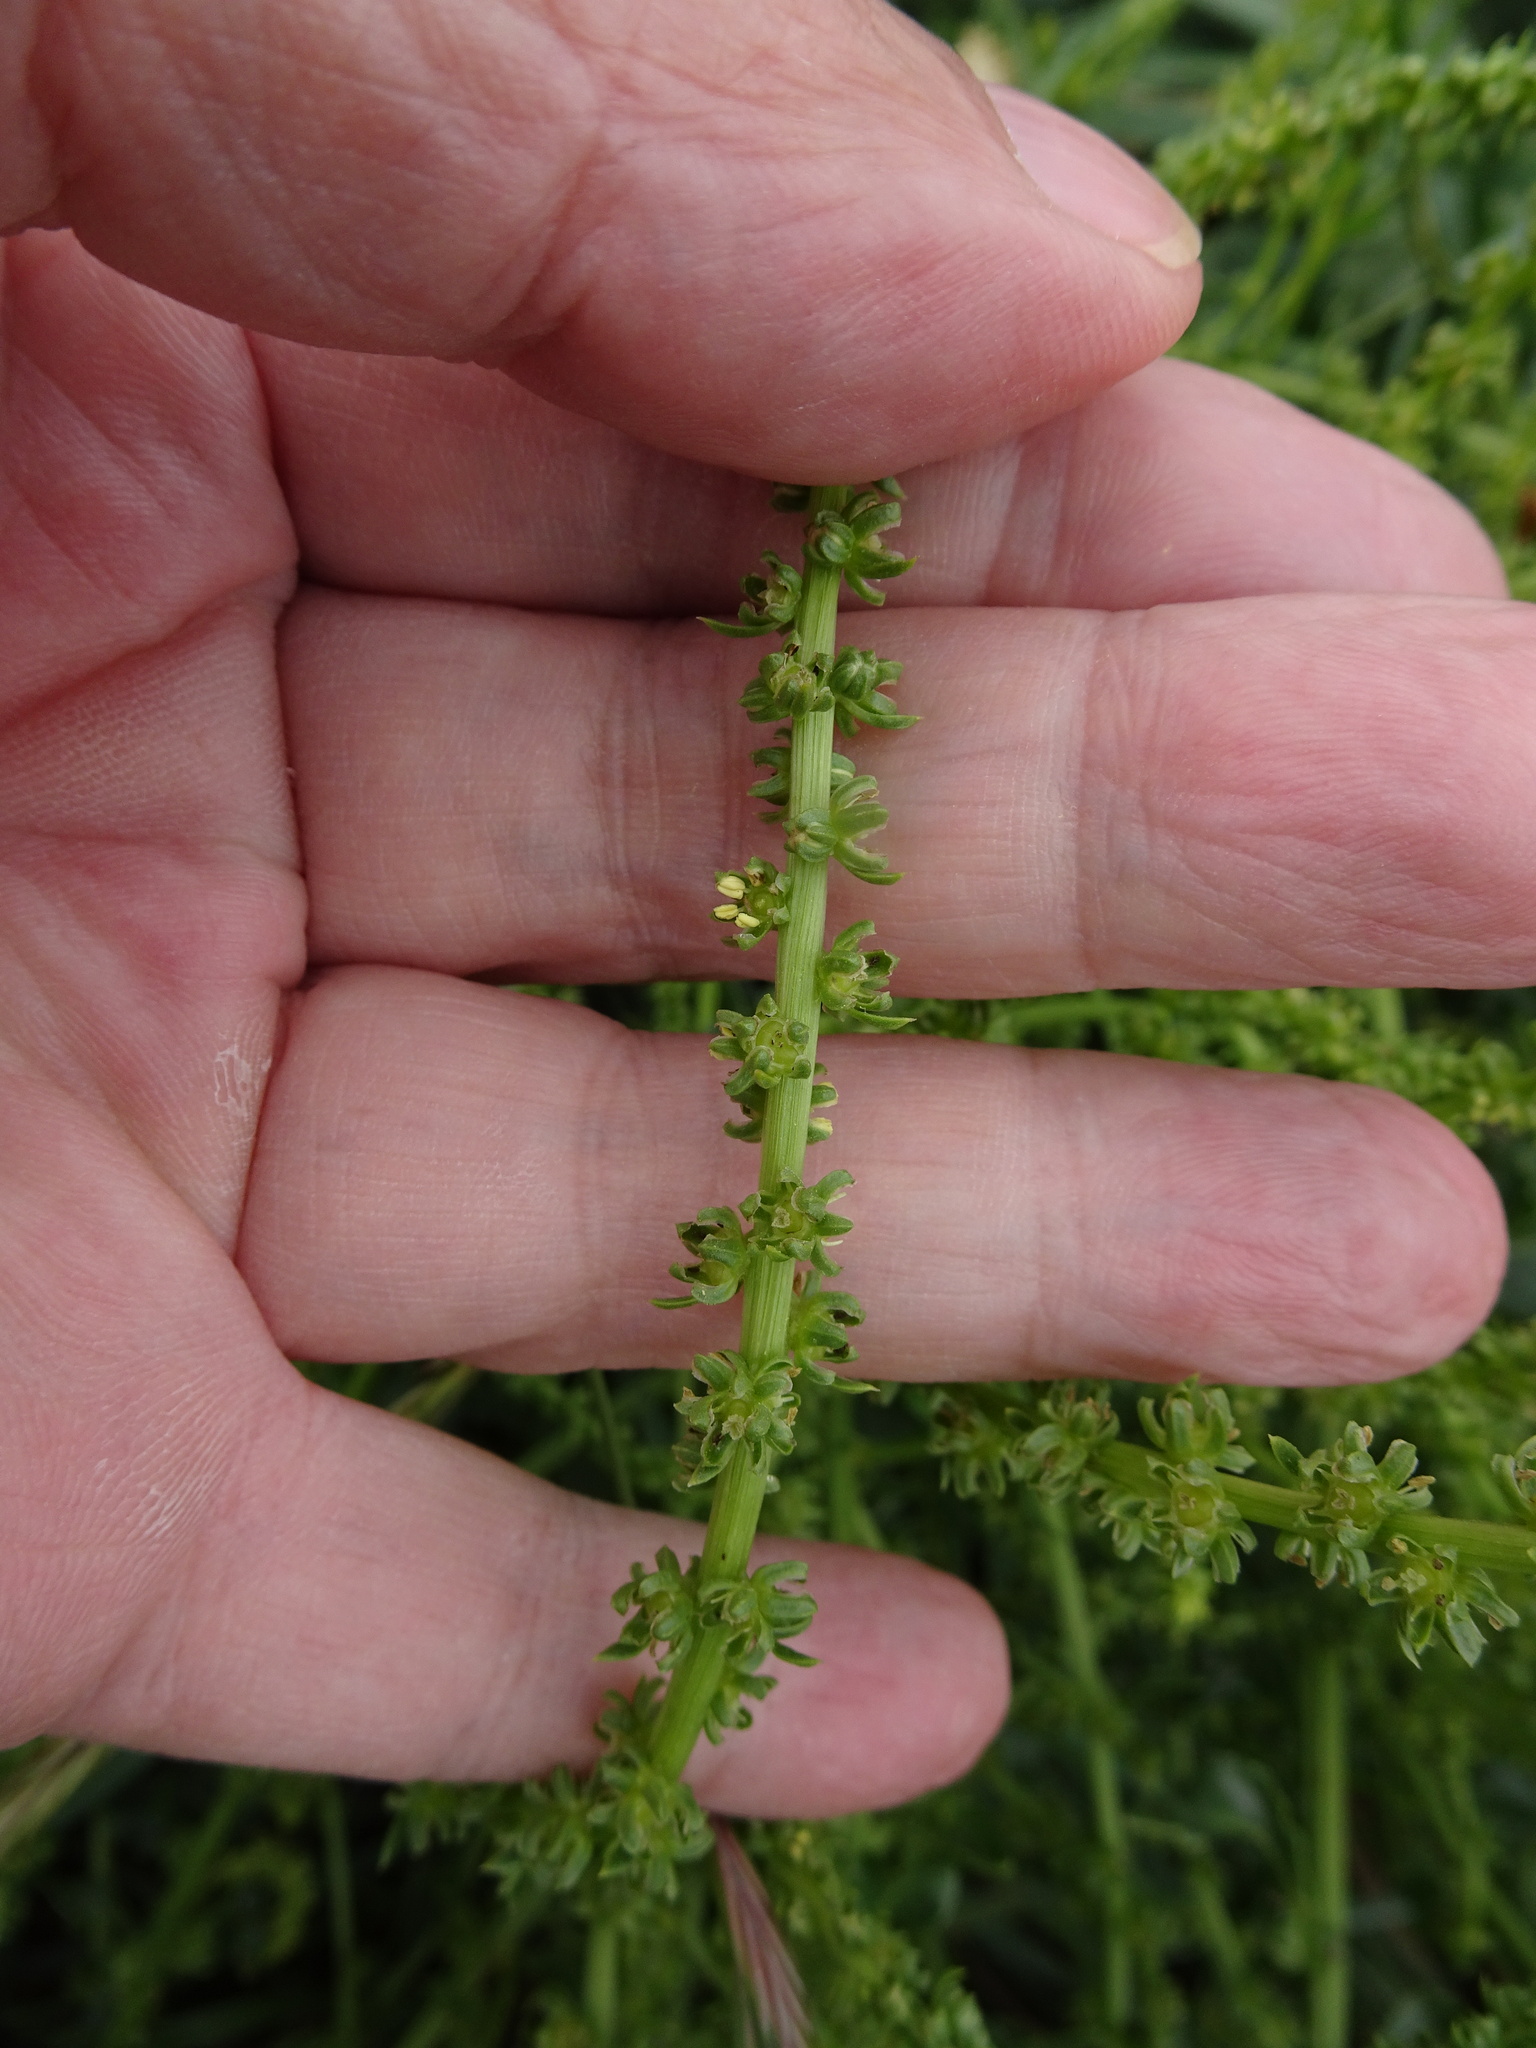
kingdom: Plantae
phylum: Tracheophyta
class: Magnoliopsida
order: Caryophyllales
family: Amaranthaceae
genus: Beta
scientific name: Beta vulgaris
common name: Beet
